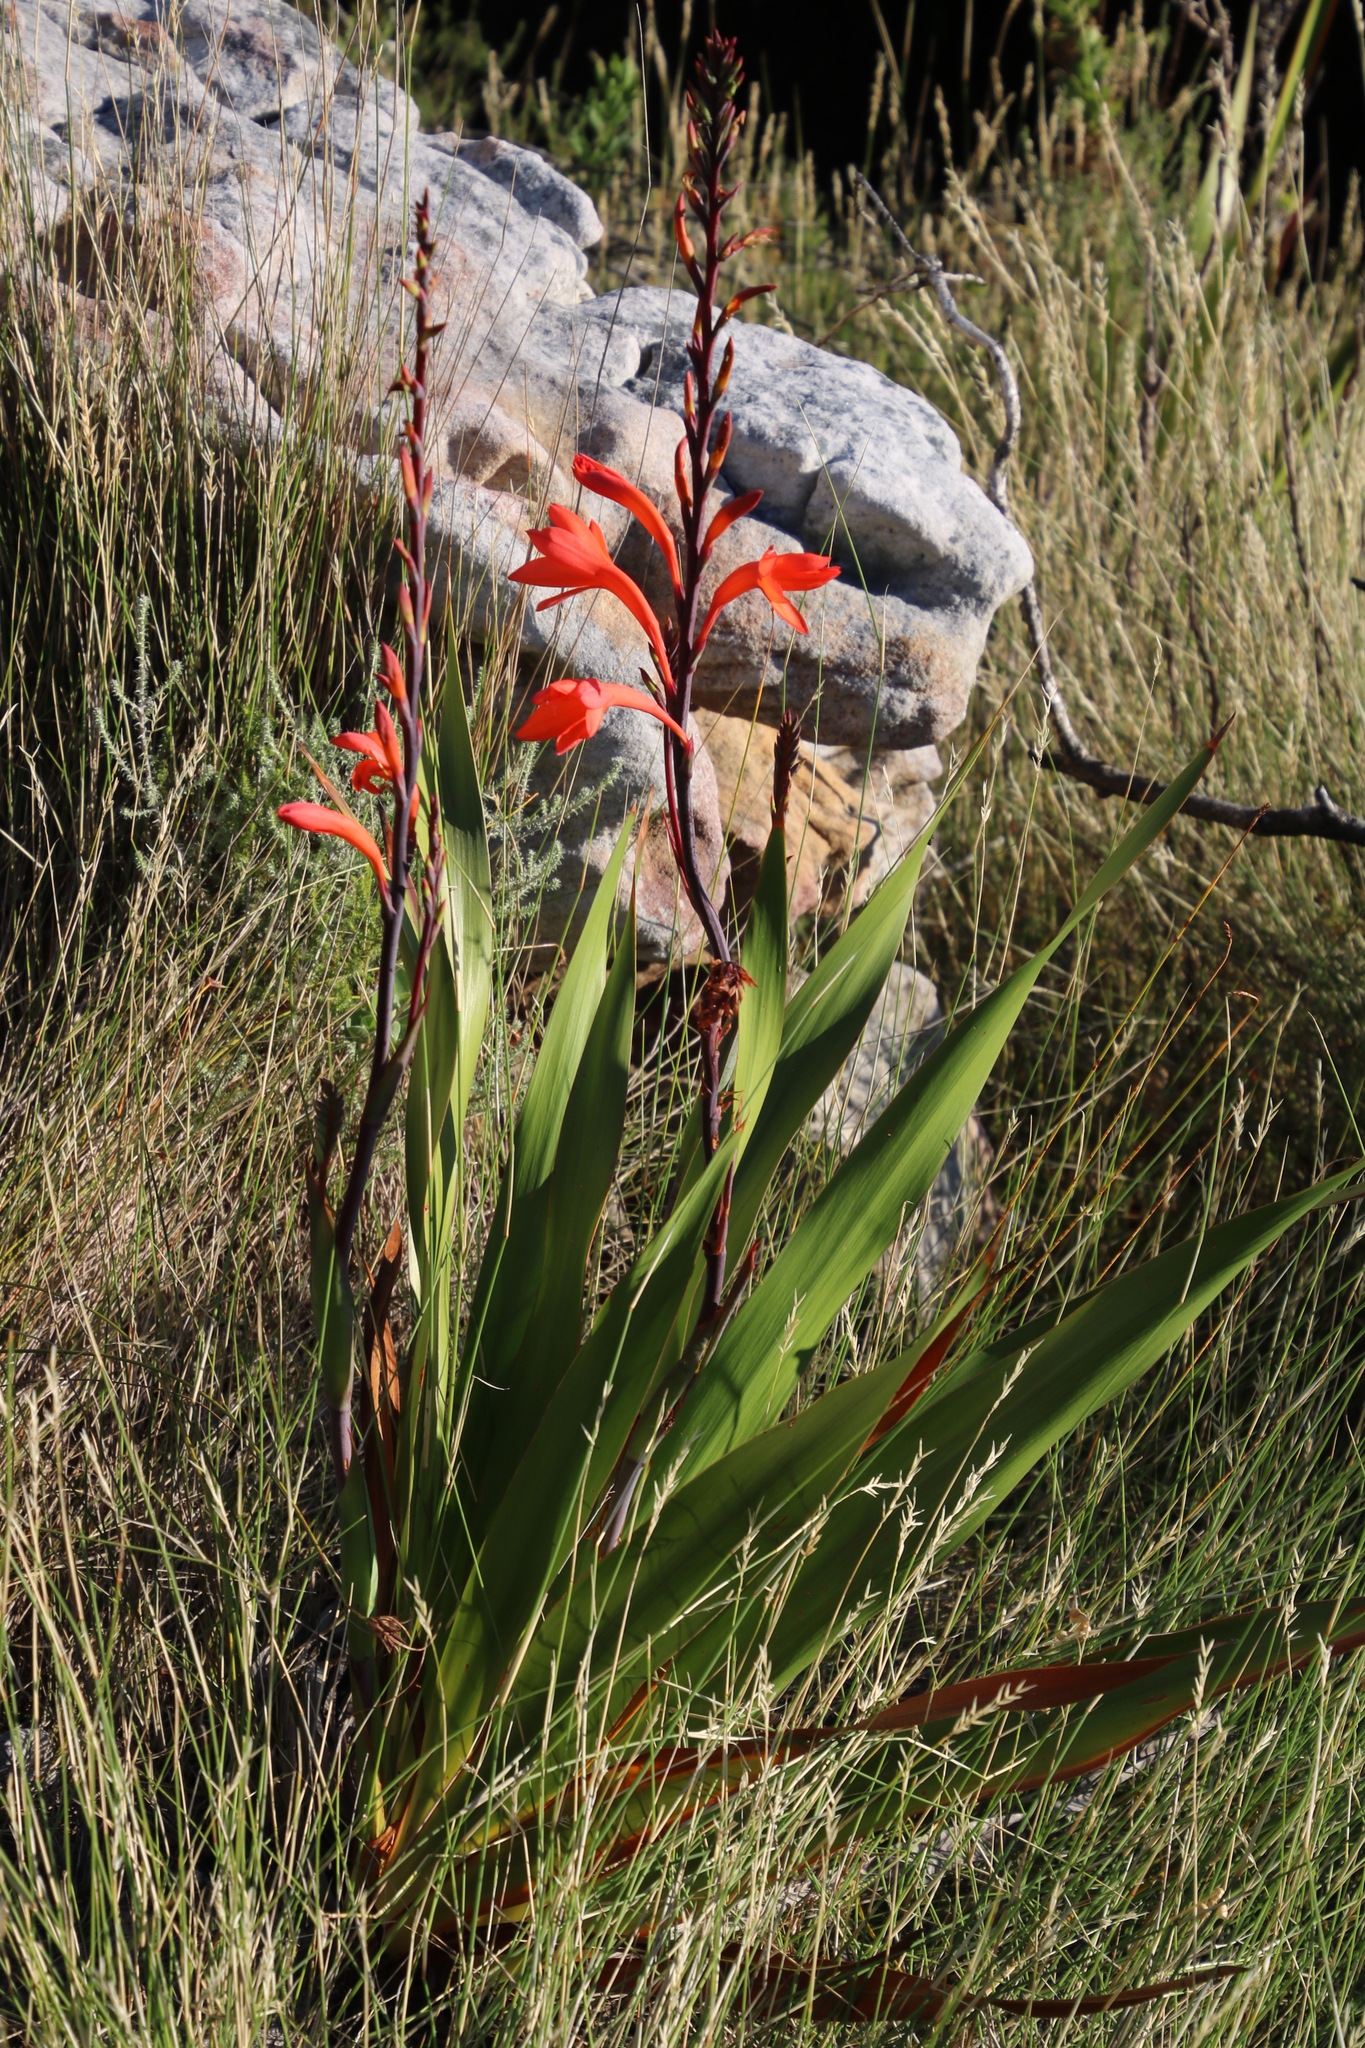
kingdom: Plantae
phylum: Tracheophyta
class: Liliopsida
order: Asparagales
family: Iridaceae
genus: Watsonia
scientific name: Watsonia tabularis
